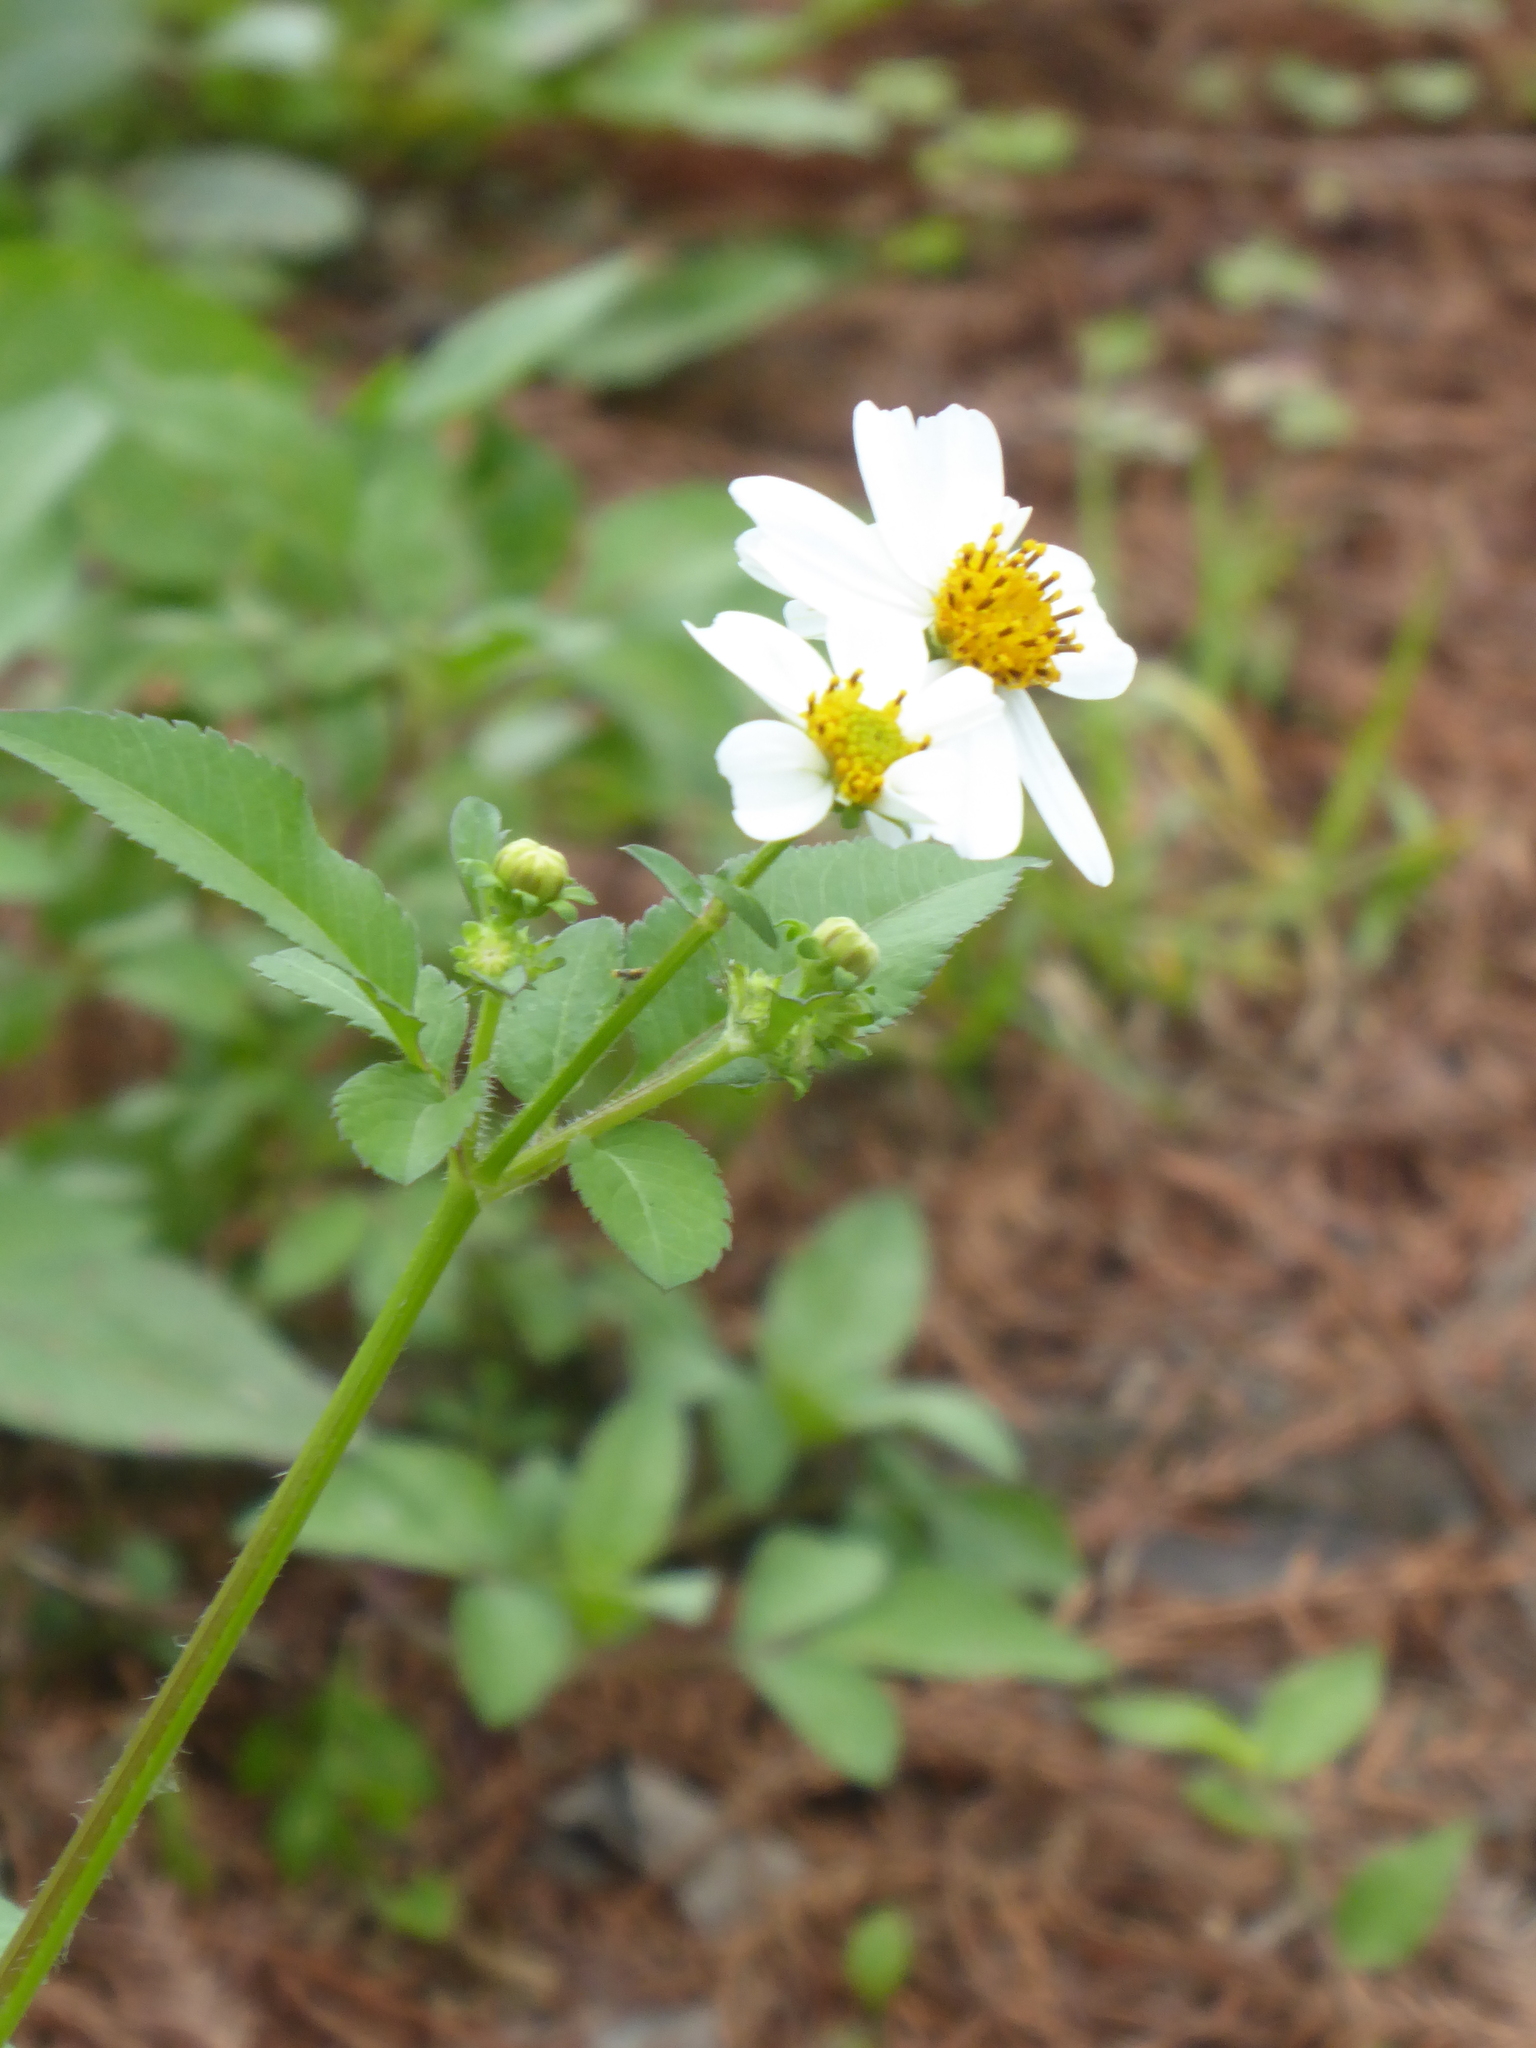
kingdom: Plantae
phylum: Tracheophyta
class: Magnoliopsida
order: Asterales
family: Asteraceae
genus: Bidens
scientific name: Bidens alba
